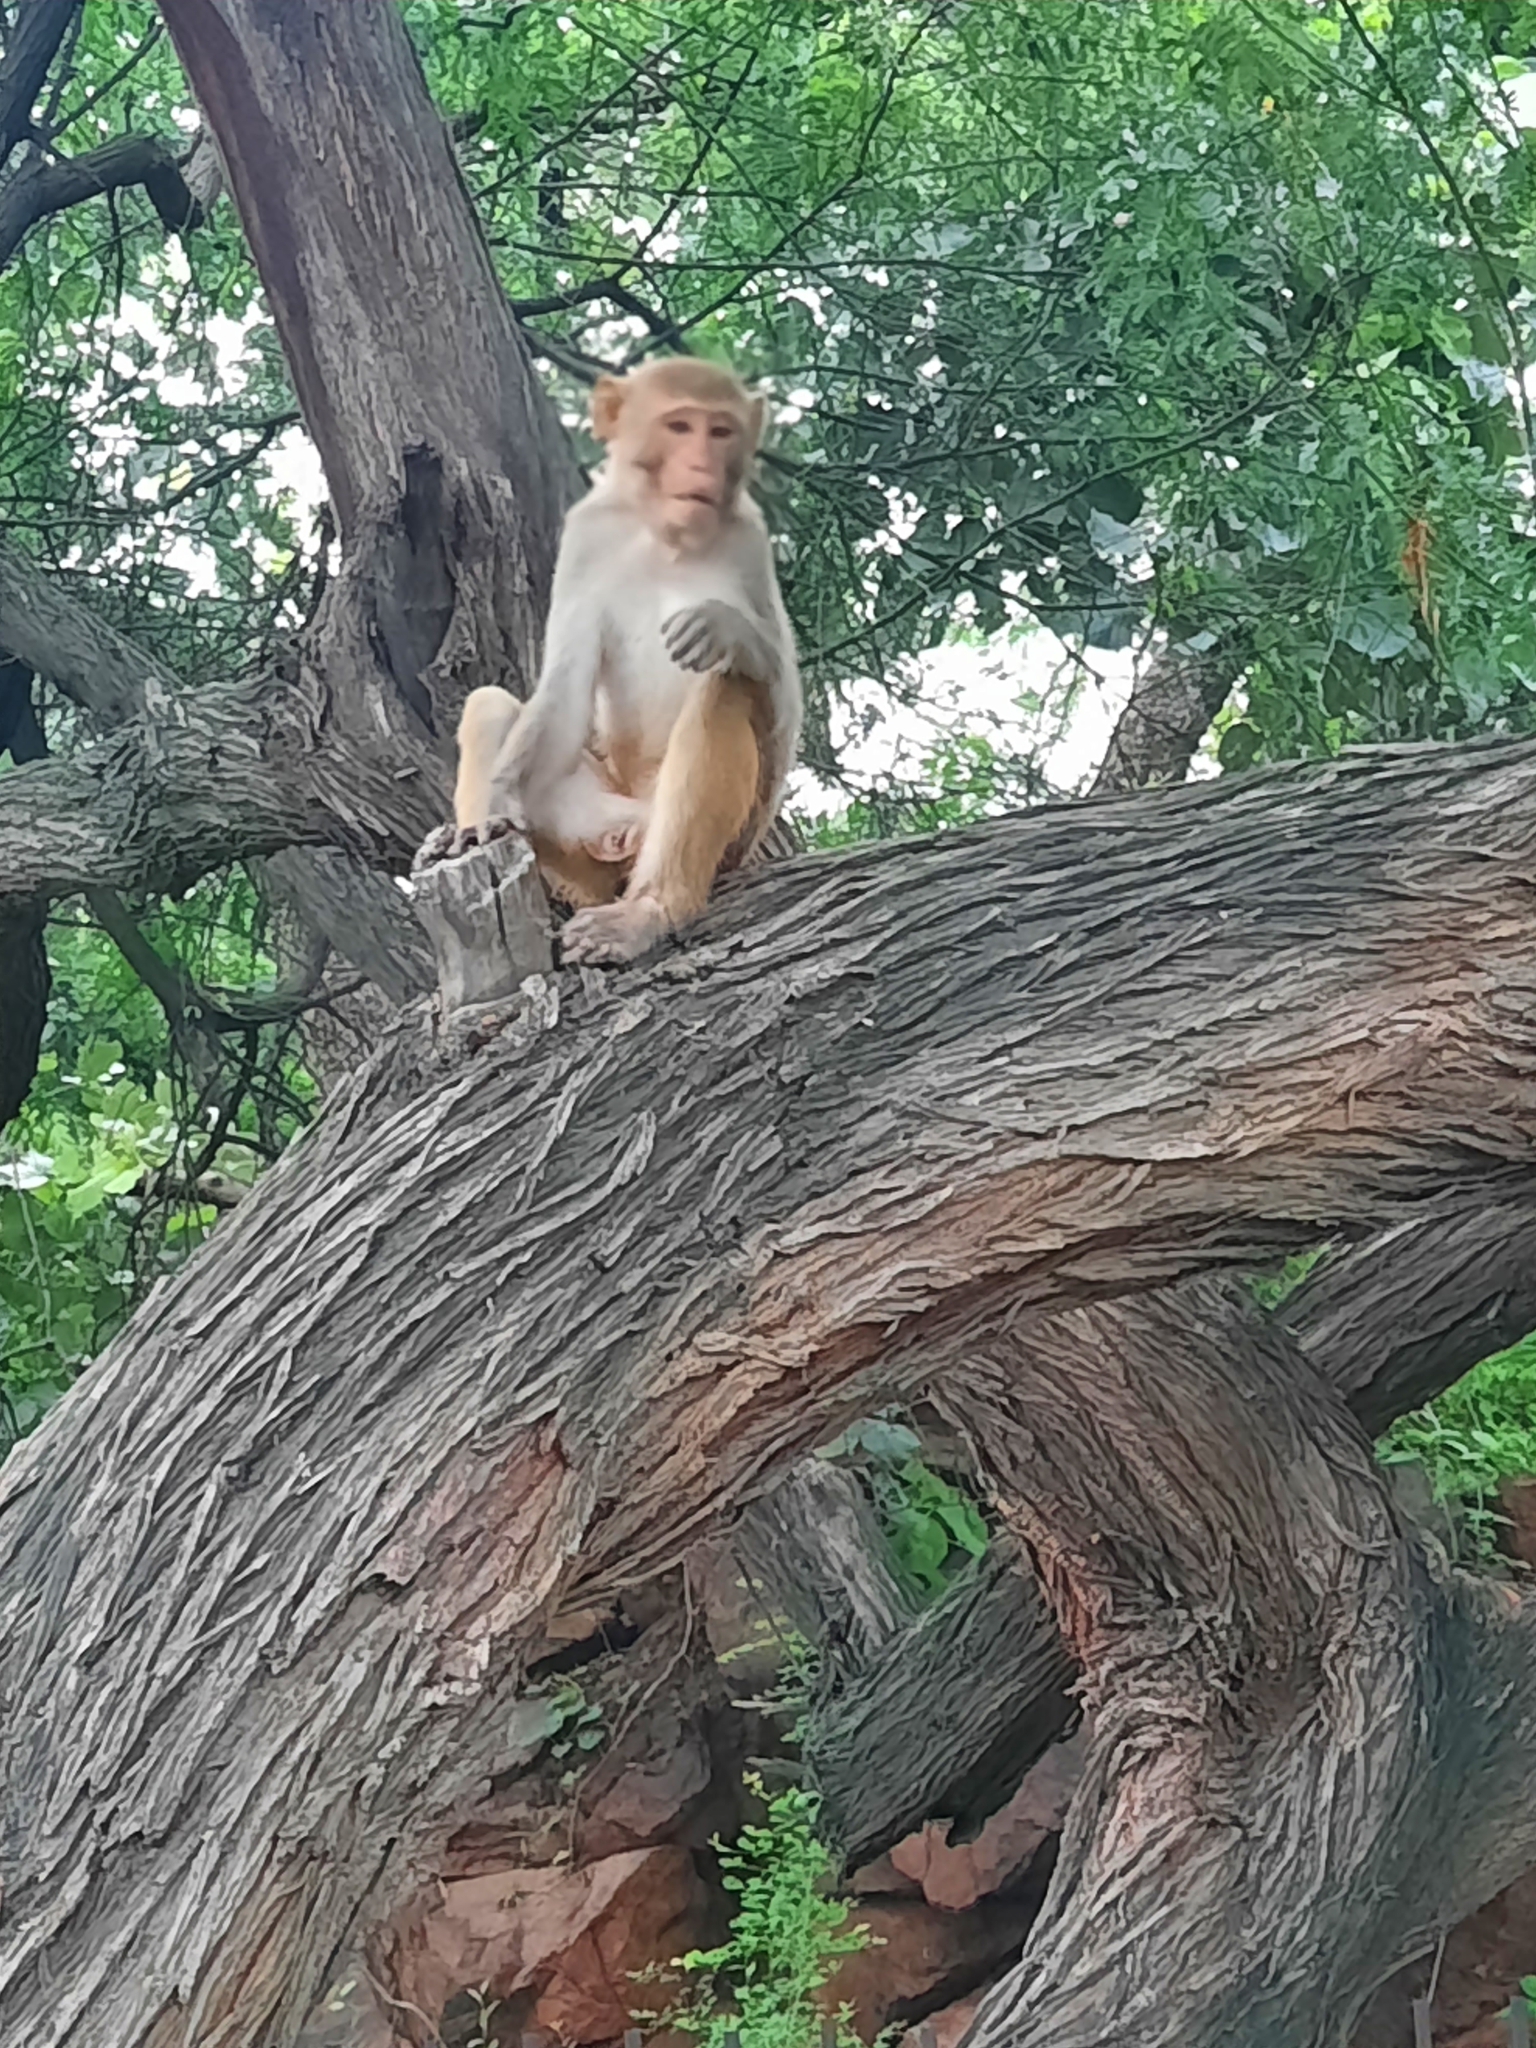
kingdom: Animalia
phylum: Chordata
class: Mammalia
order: Primates
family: Cercopithecidae
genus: Macaca
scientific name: Macaca mulatta
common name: Rhesus monkey
